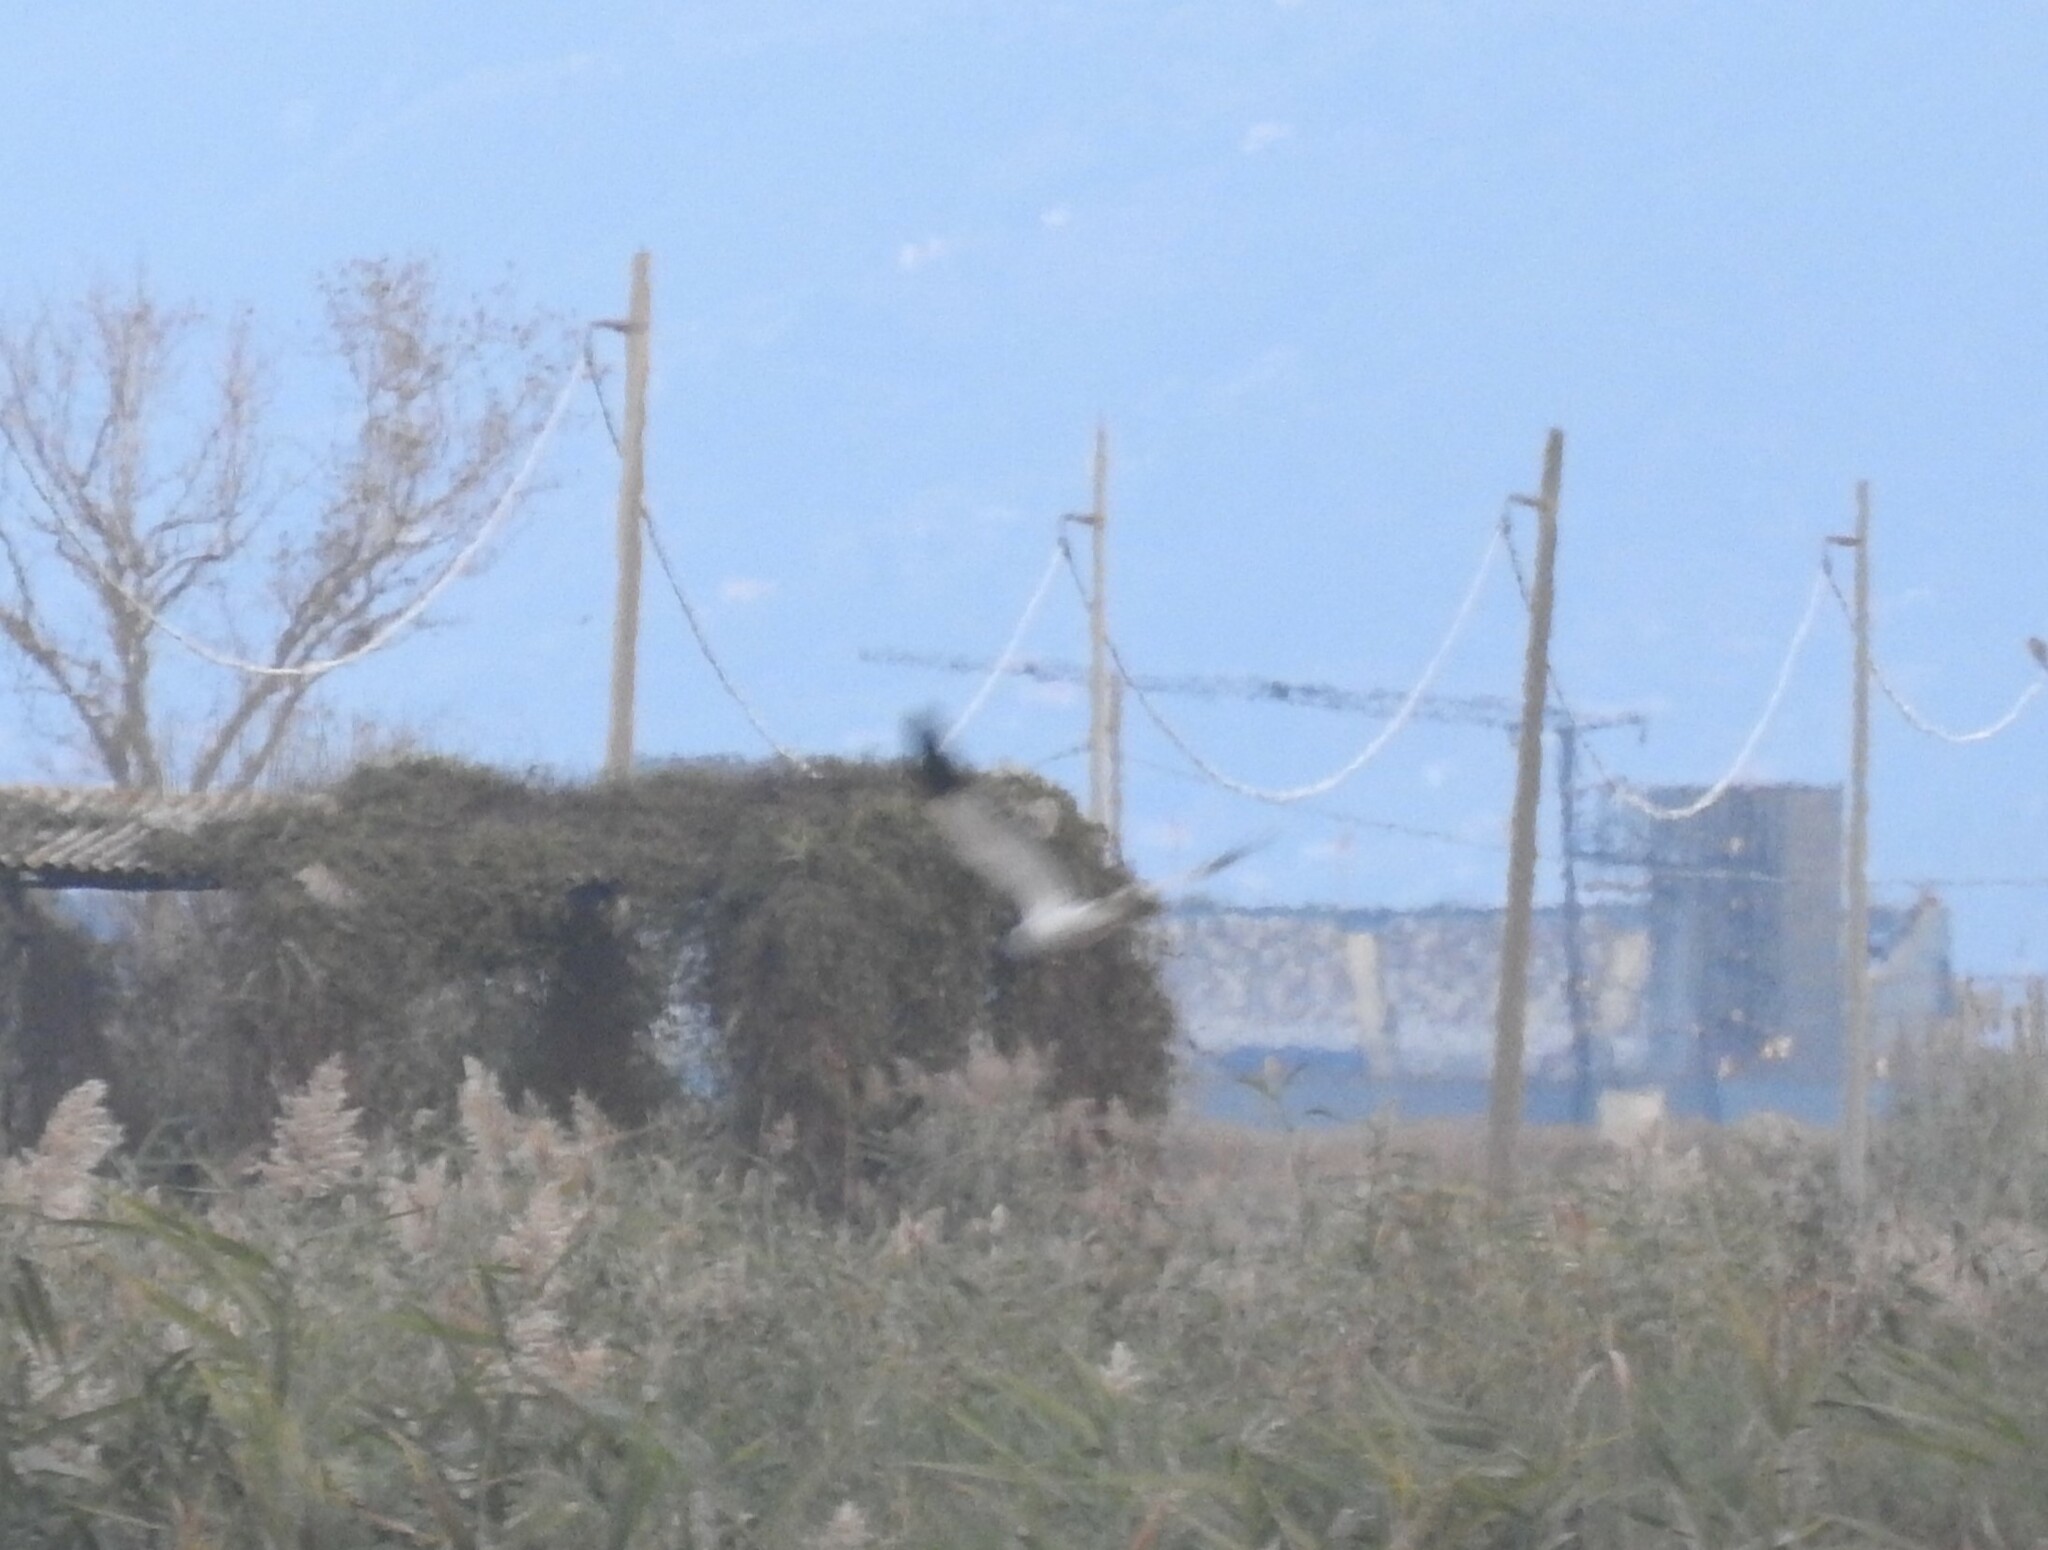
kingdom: Animalia
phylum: Chordata
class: Aves
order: Accipitriformes
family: Accipitridae
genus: Circus
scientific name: Circus cyaneus
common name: Hen harrier
